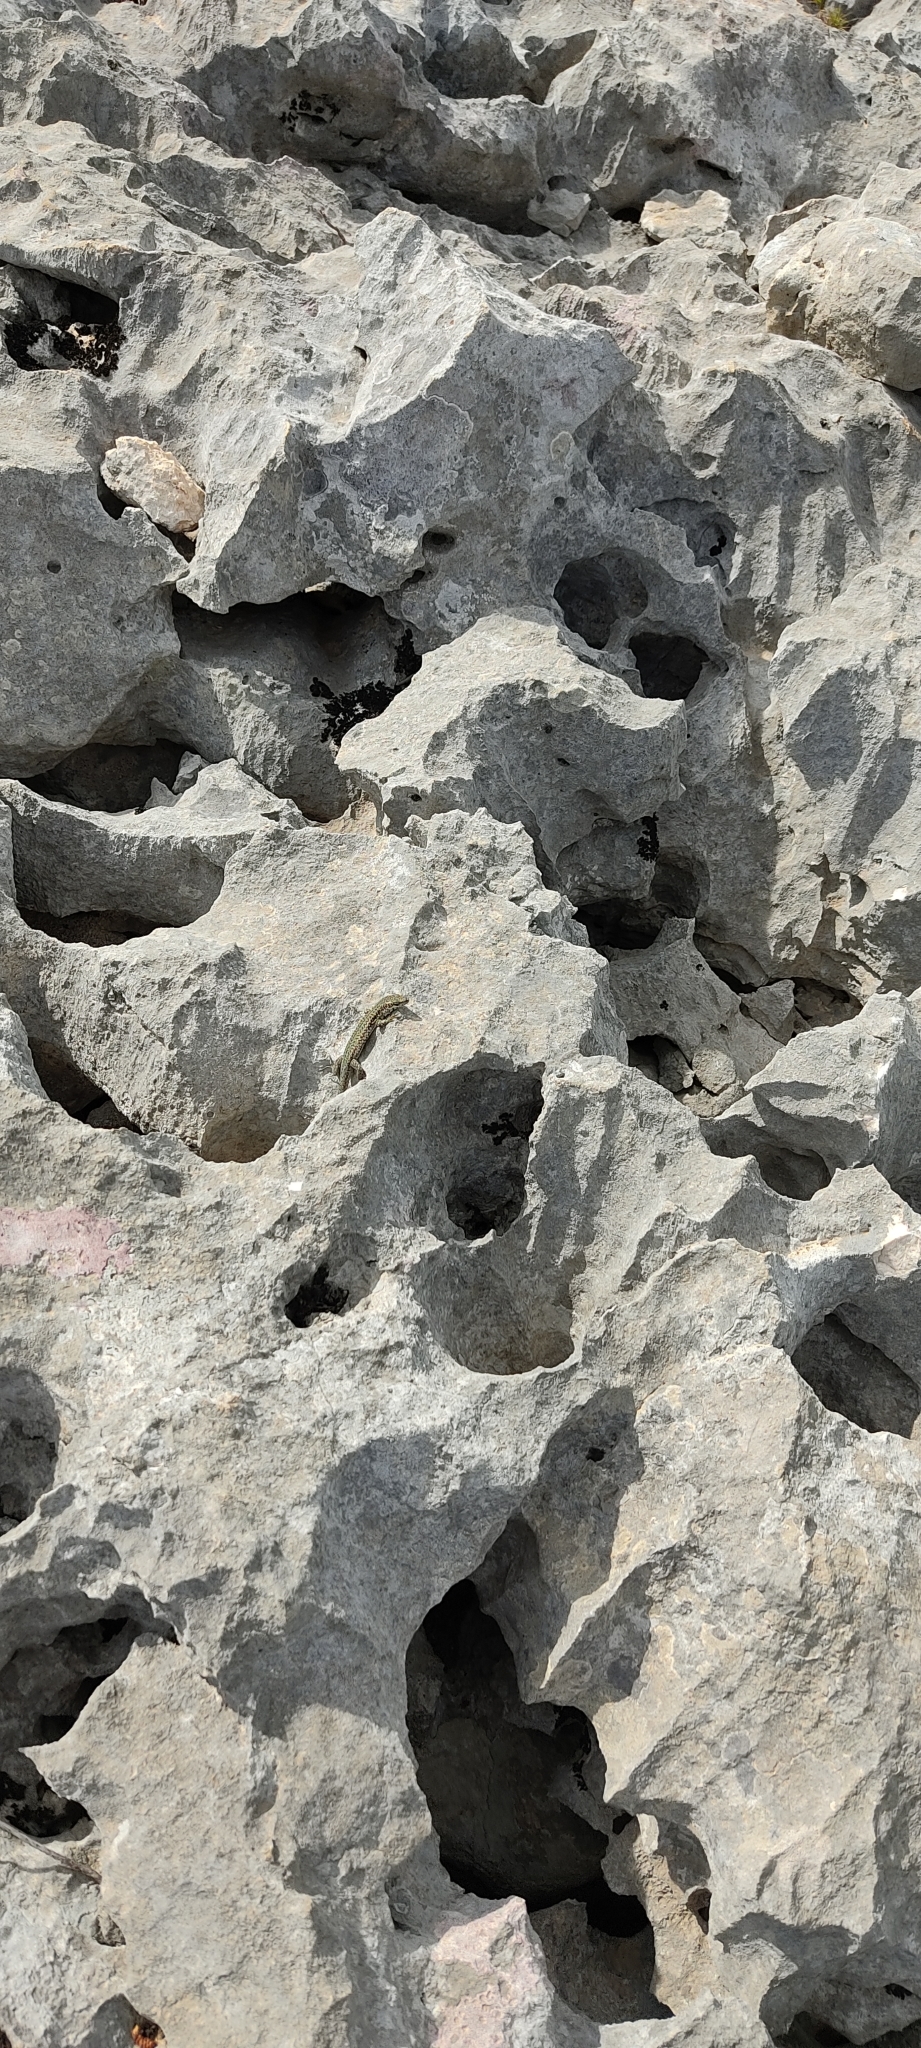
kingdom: Animalia
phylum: Chordata
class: Squamata
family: Lacertidae
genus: Podarcis
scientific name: Podarcis liolepis
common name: Catalonian wall lizard
